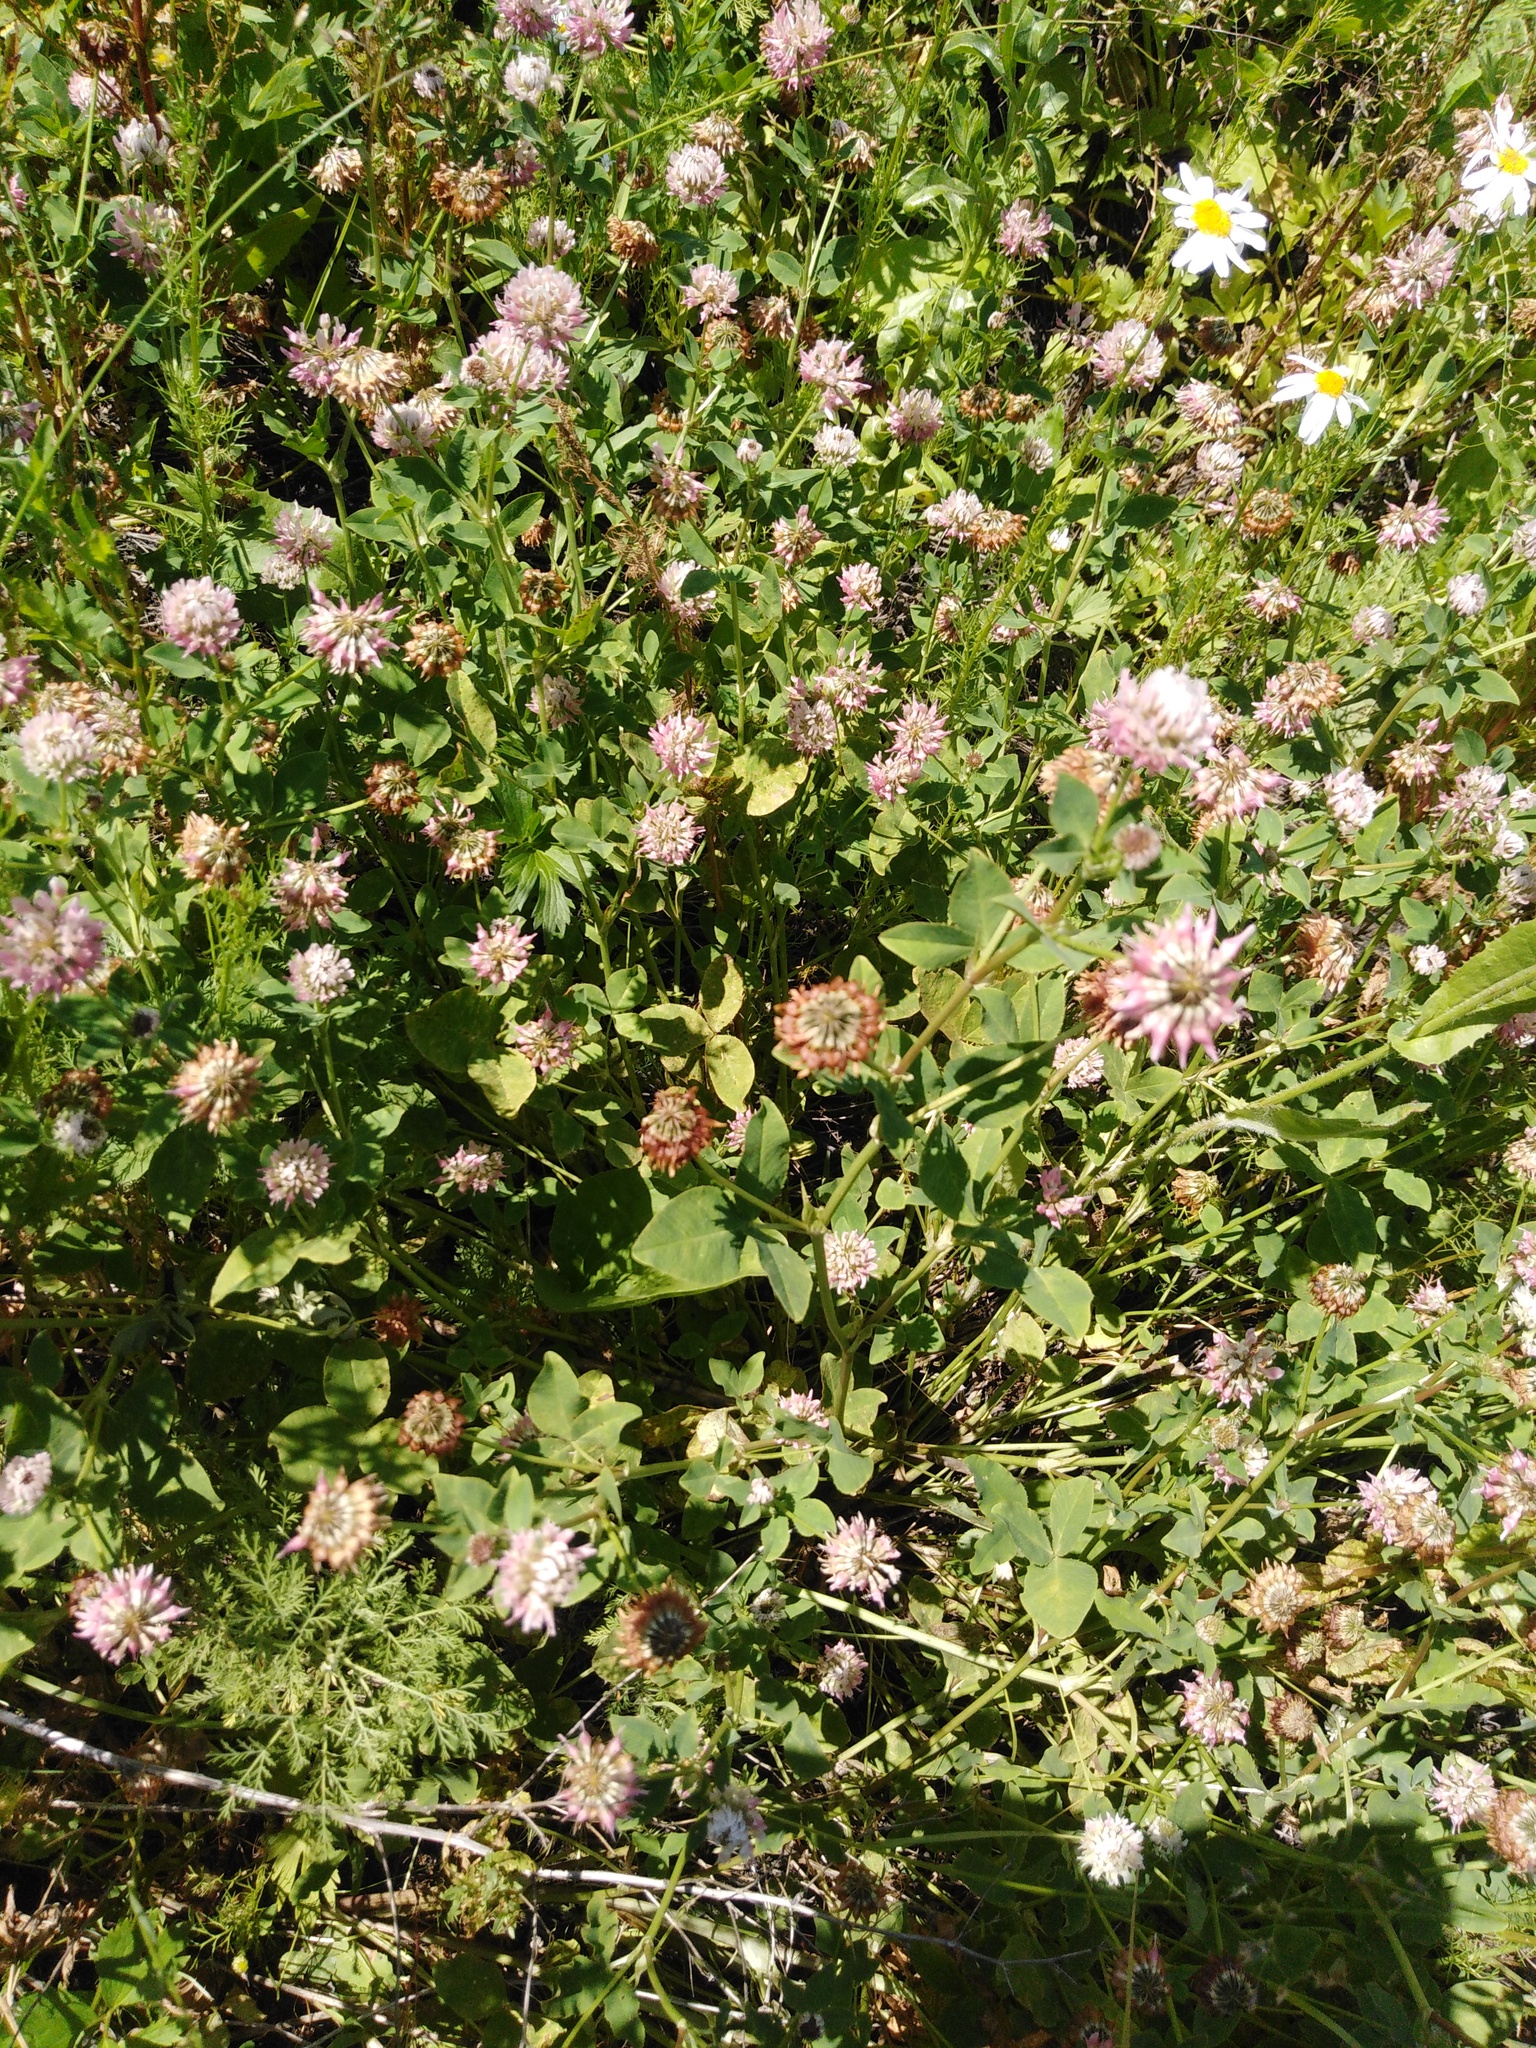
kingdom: Plantae
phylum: Tracheophyta
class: Magnoliopsida
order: Fabales
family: Fabaceae
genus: Trifolium
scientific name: Trifolium hybridum
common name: Alsike clover
